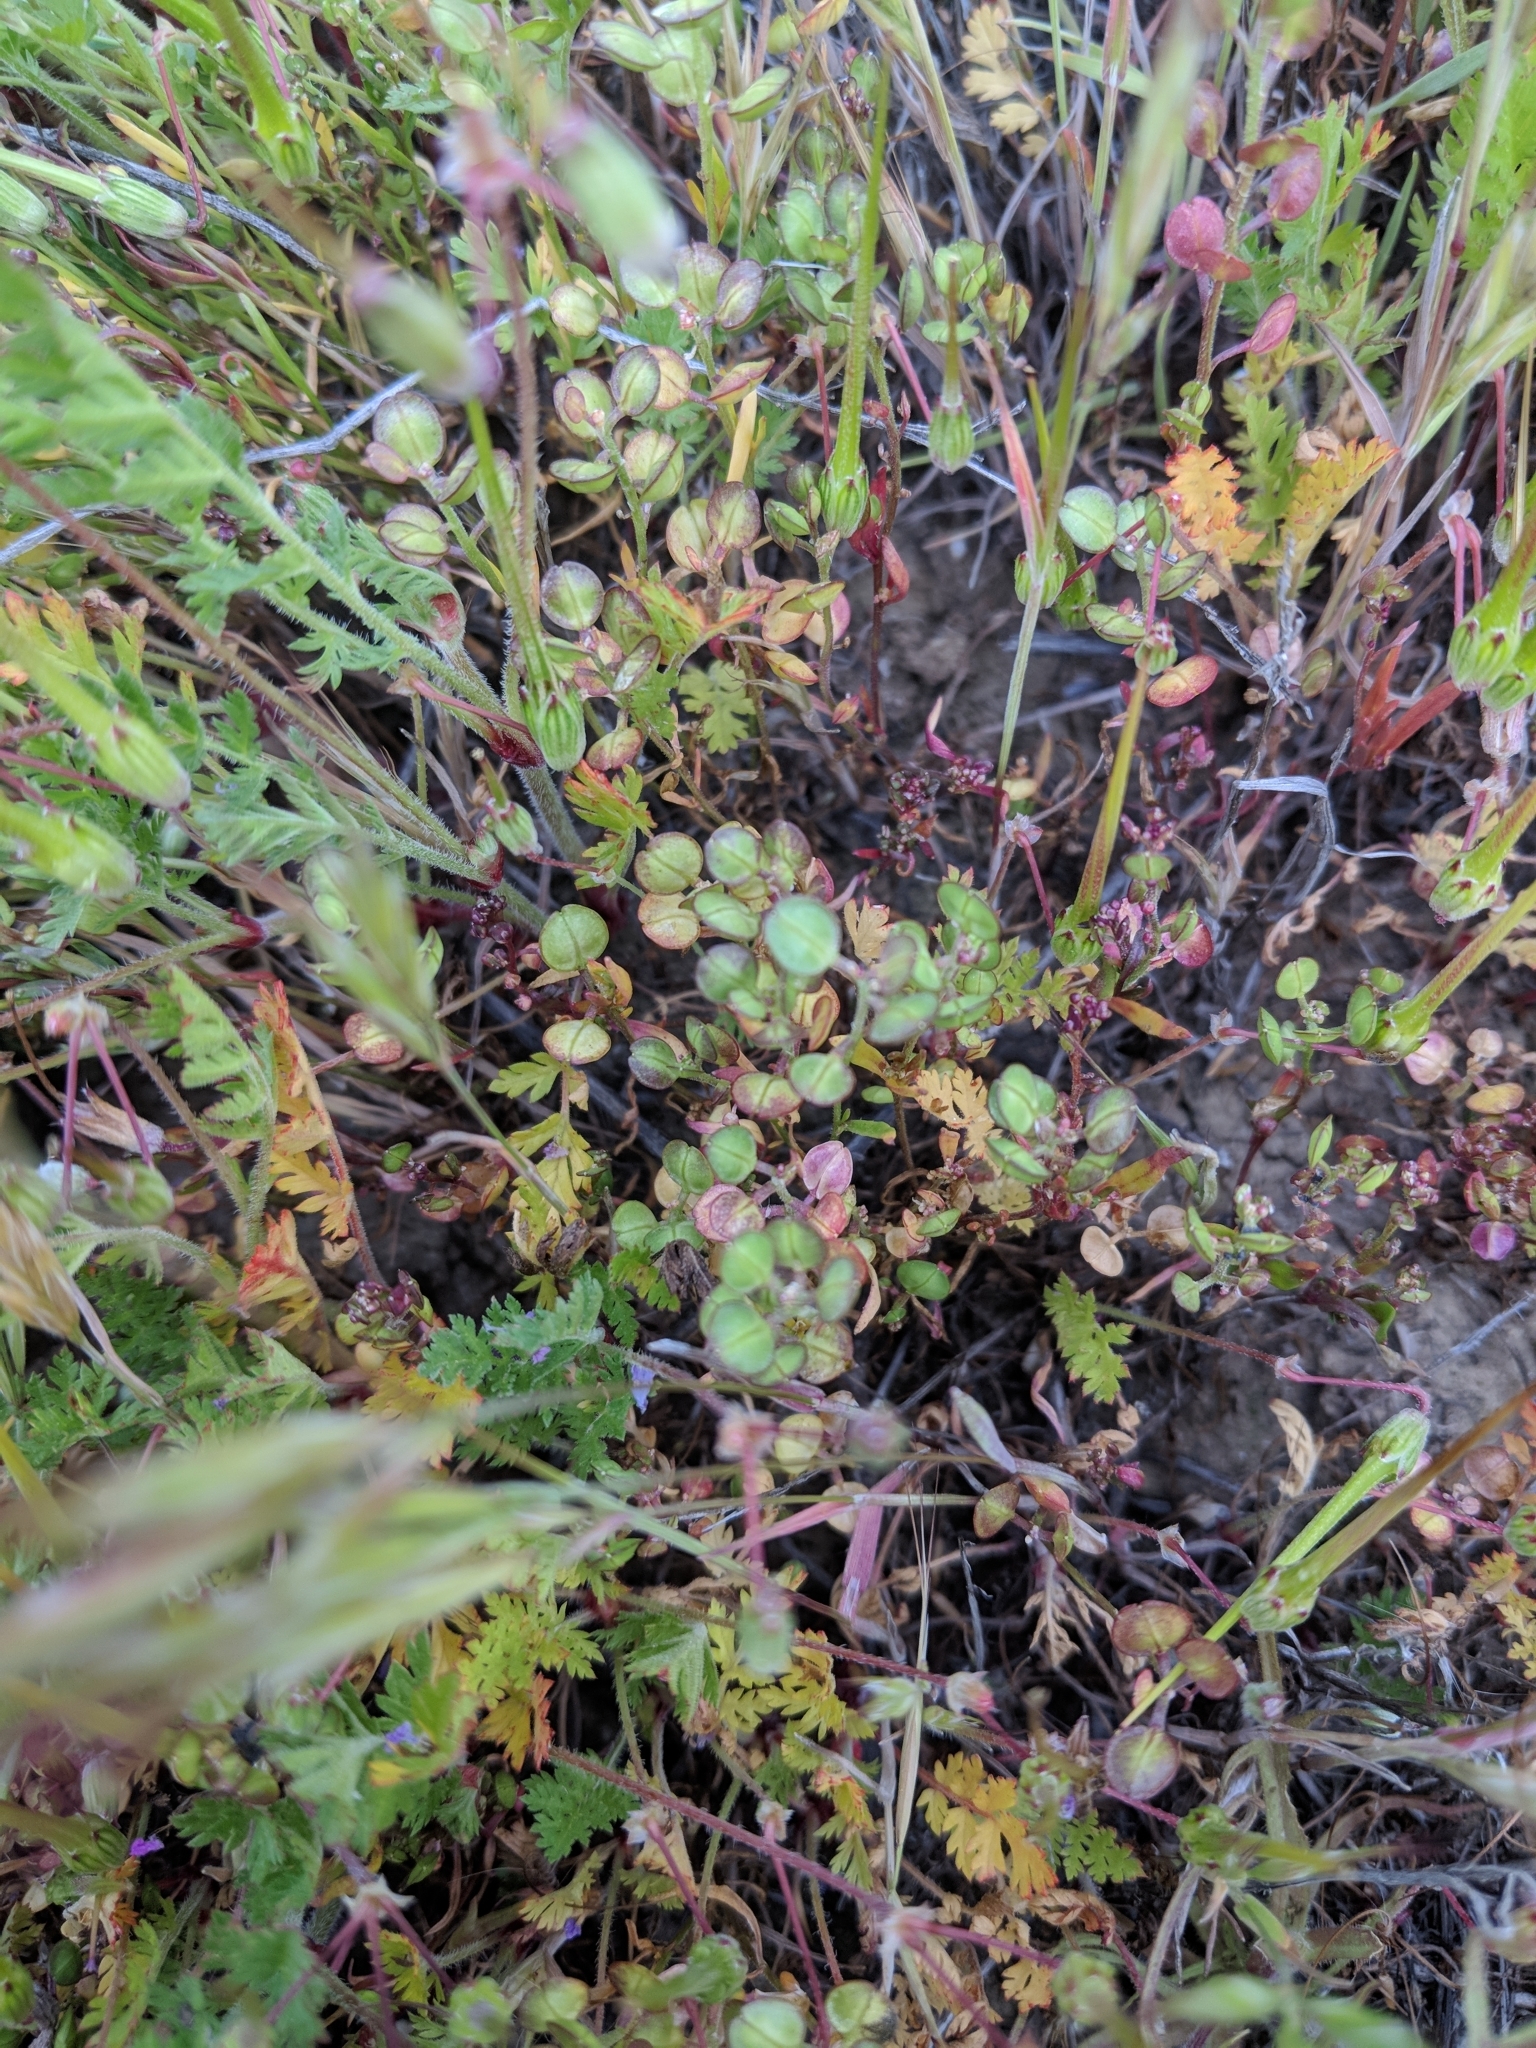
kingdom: Plantae
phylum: Tracheophyta
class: Magnoliopsida
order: Brassicales
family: Brassicaceae
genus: Lepidium
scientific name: Lepidium nitidum
